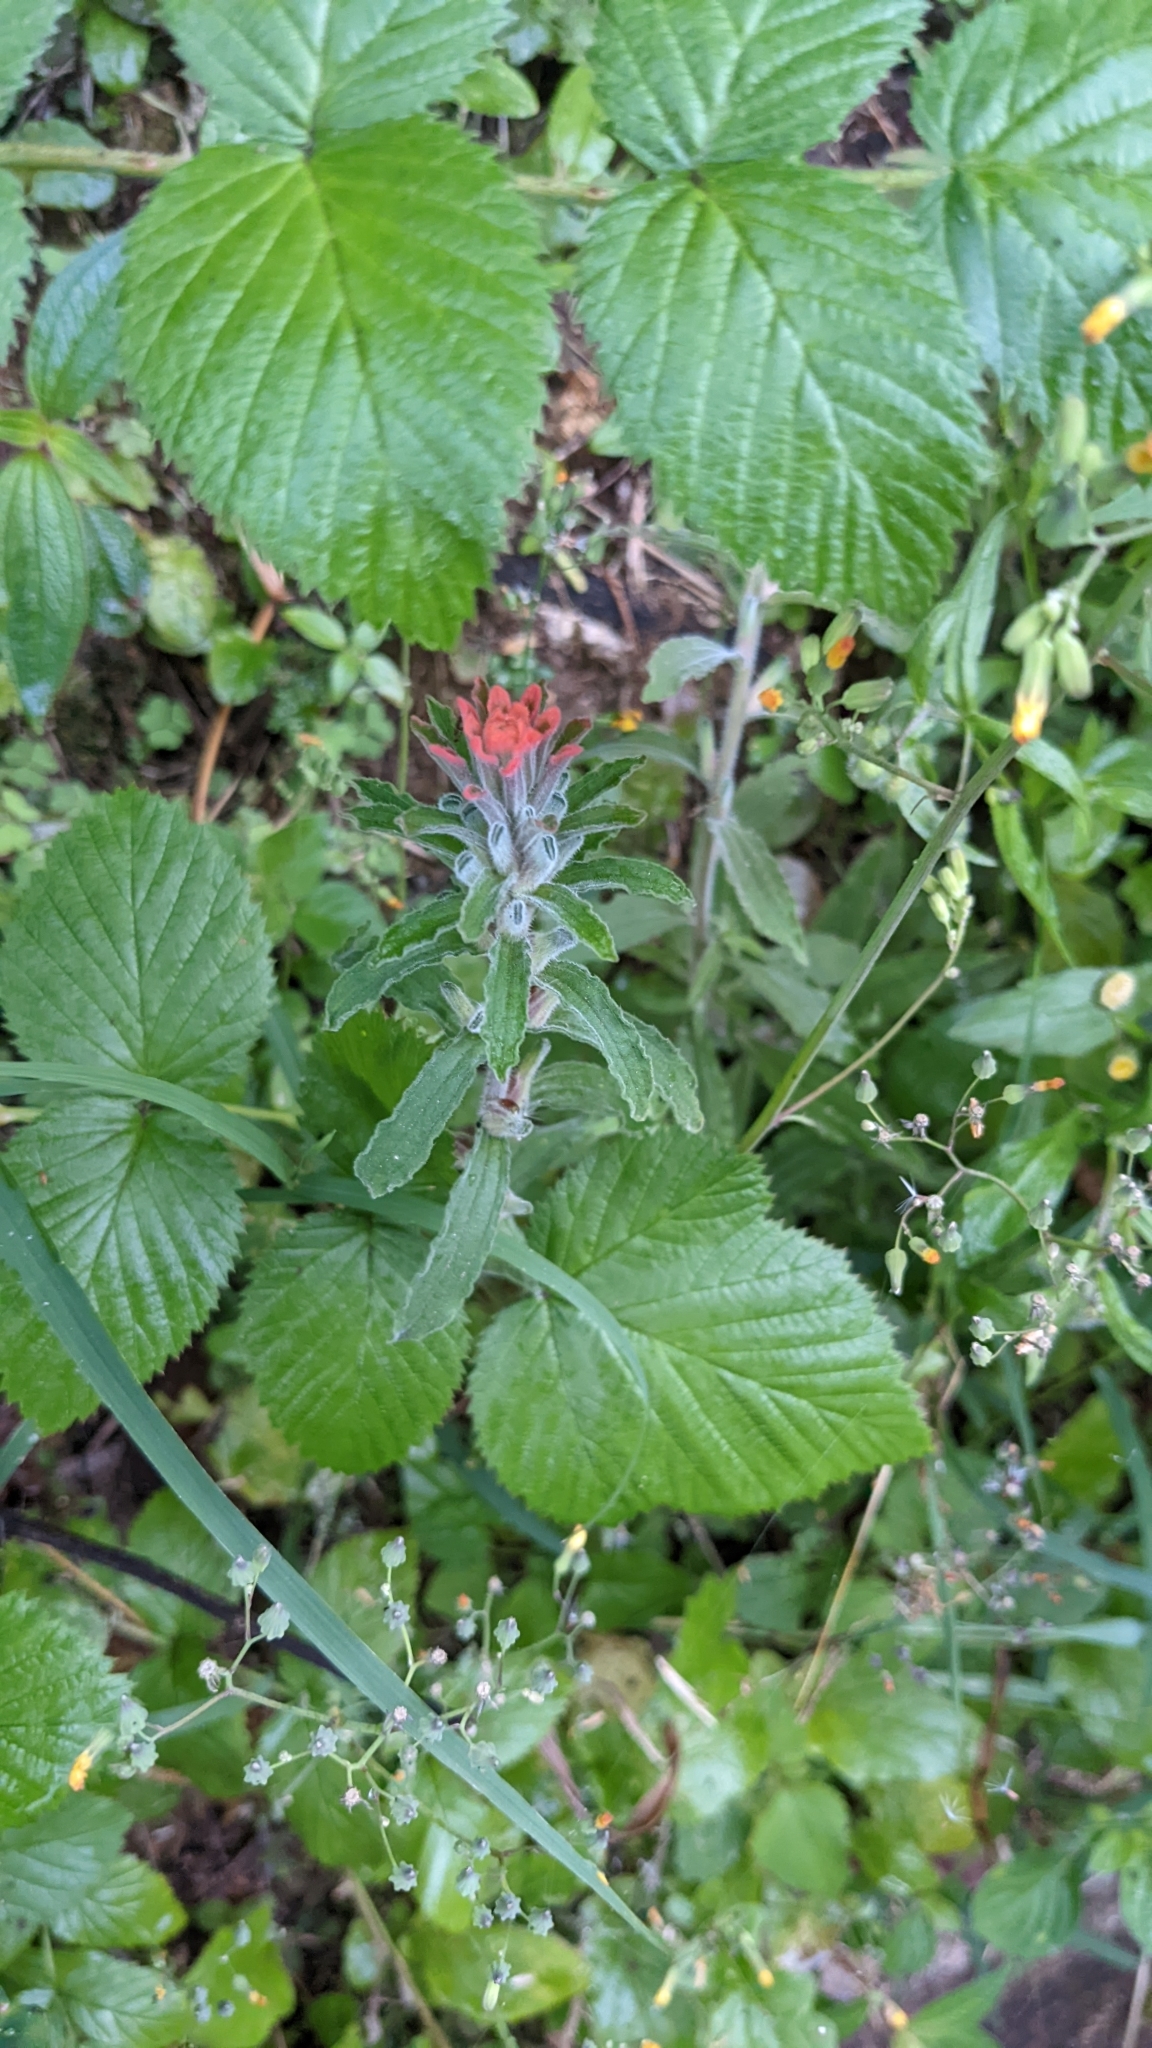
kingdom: Plantae
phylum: Tracheophyta
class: Magnoliopsida
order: Lamiales
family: Orobanchaceae
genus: Castilleja
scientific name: Castilleja arvensis
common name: Indian paintbrush
